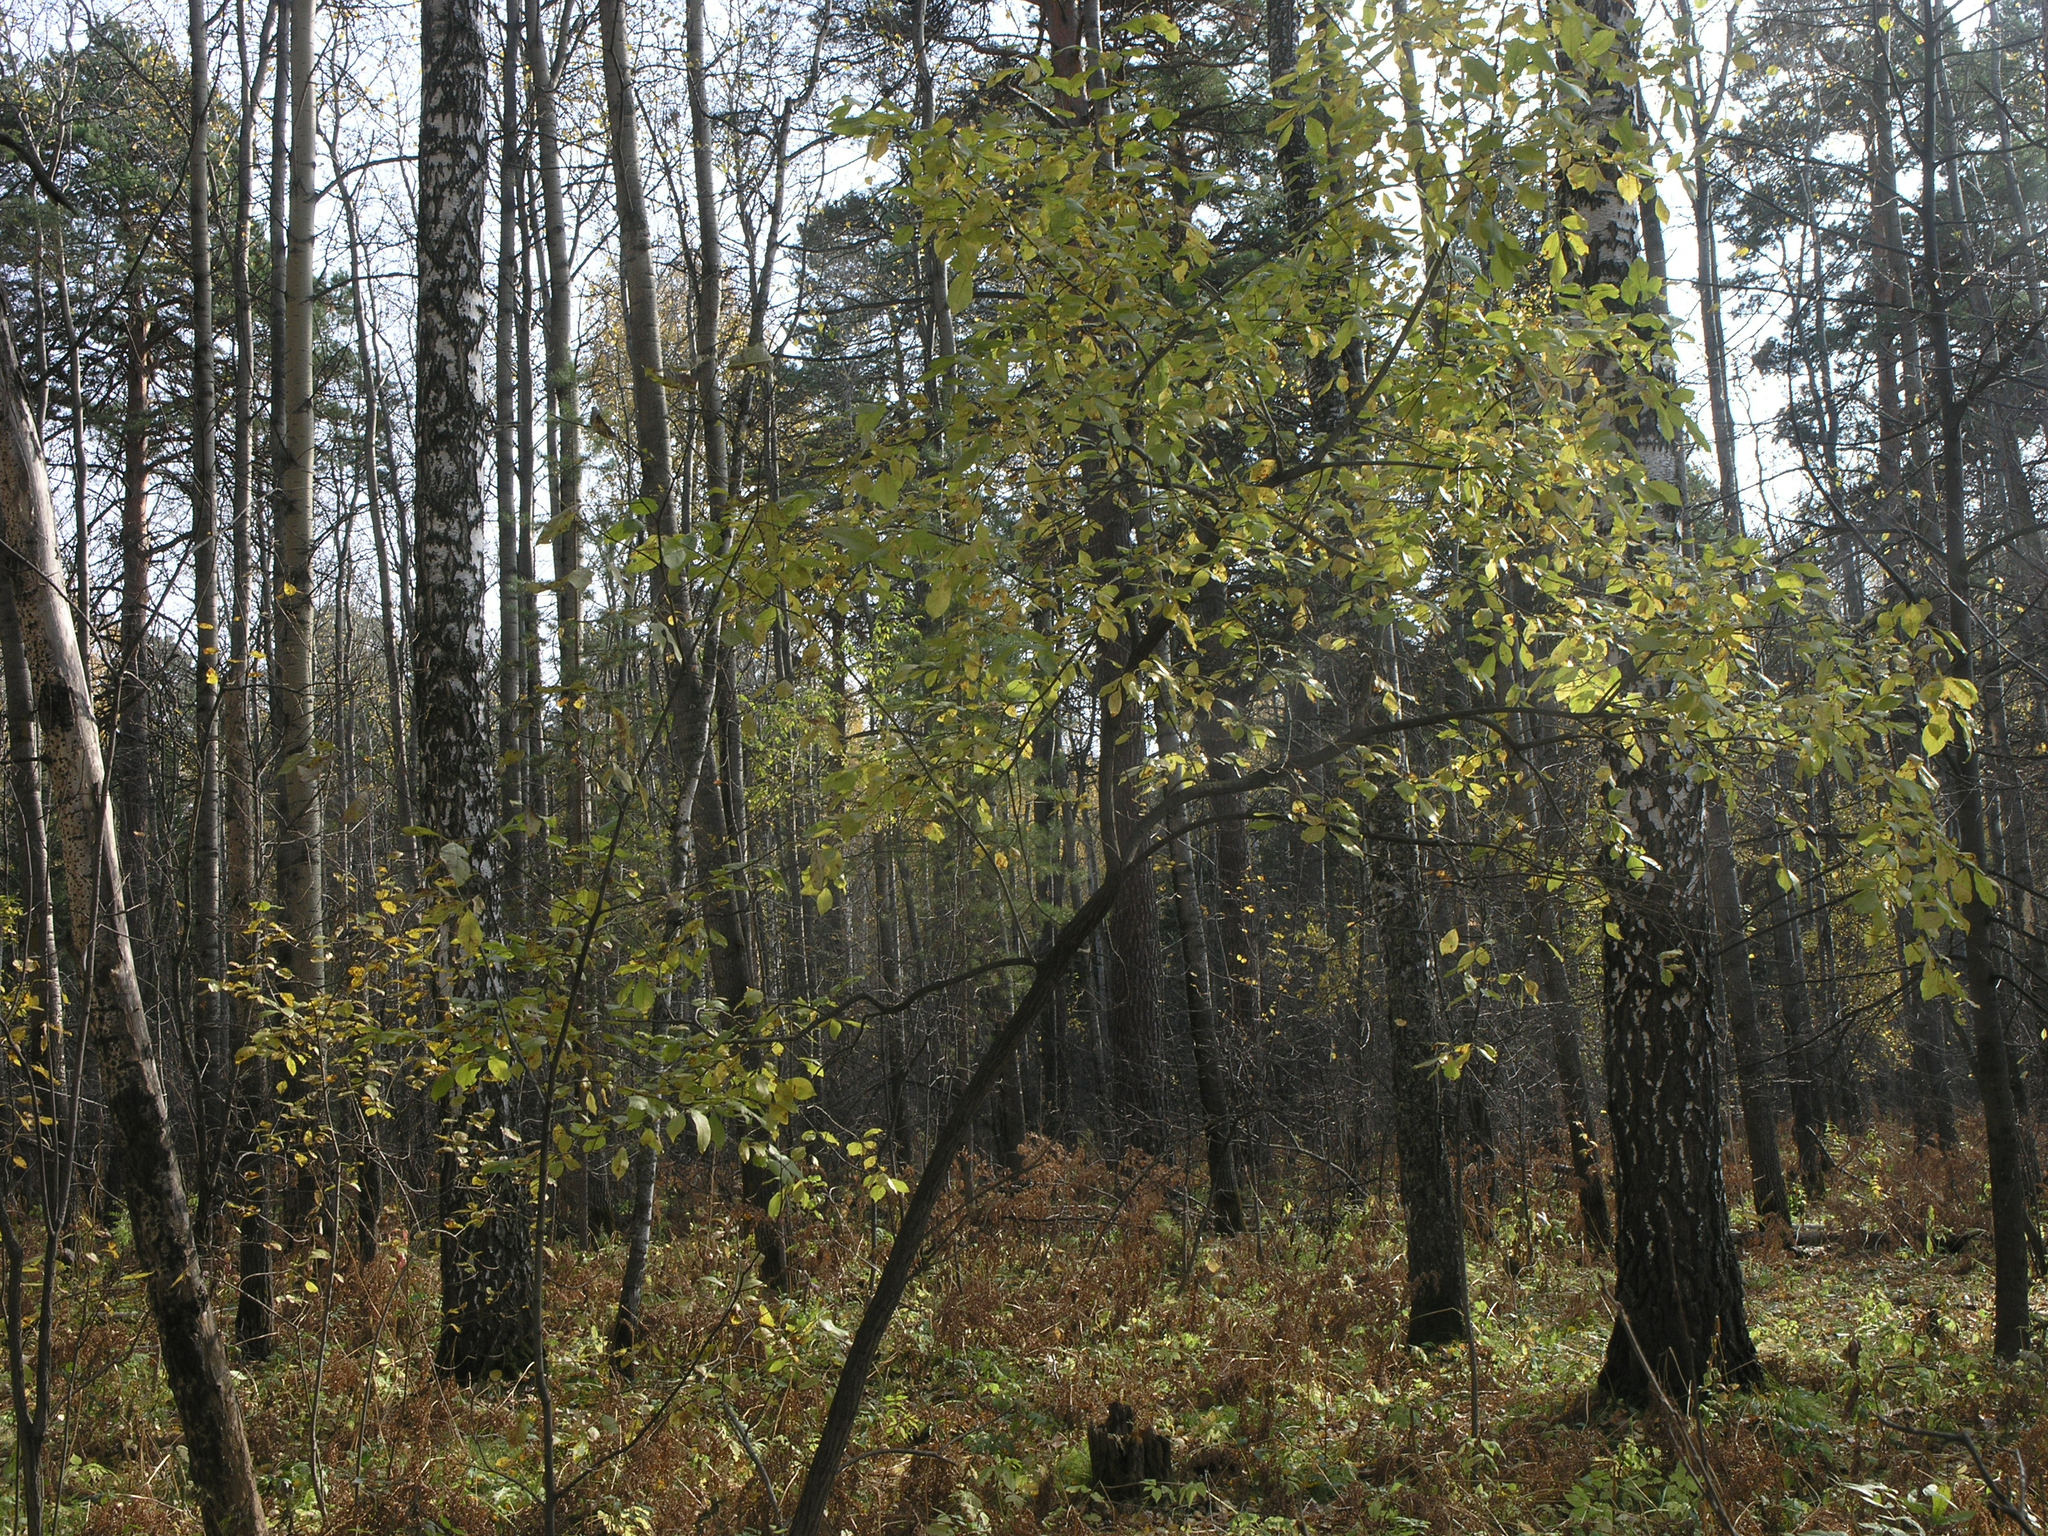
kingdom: Plantae
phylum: Tracheophyta
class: Magnoliopsida
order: Rosales
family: Rosaceae
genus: Prunus
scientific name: Prunus padus
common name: Bird cherry
